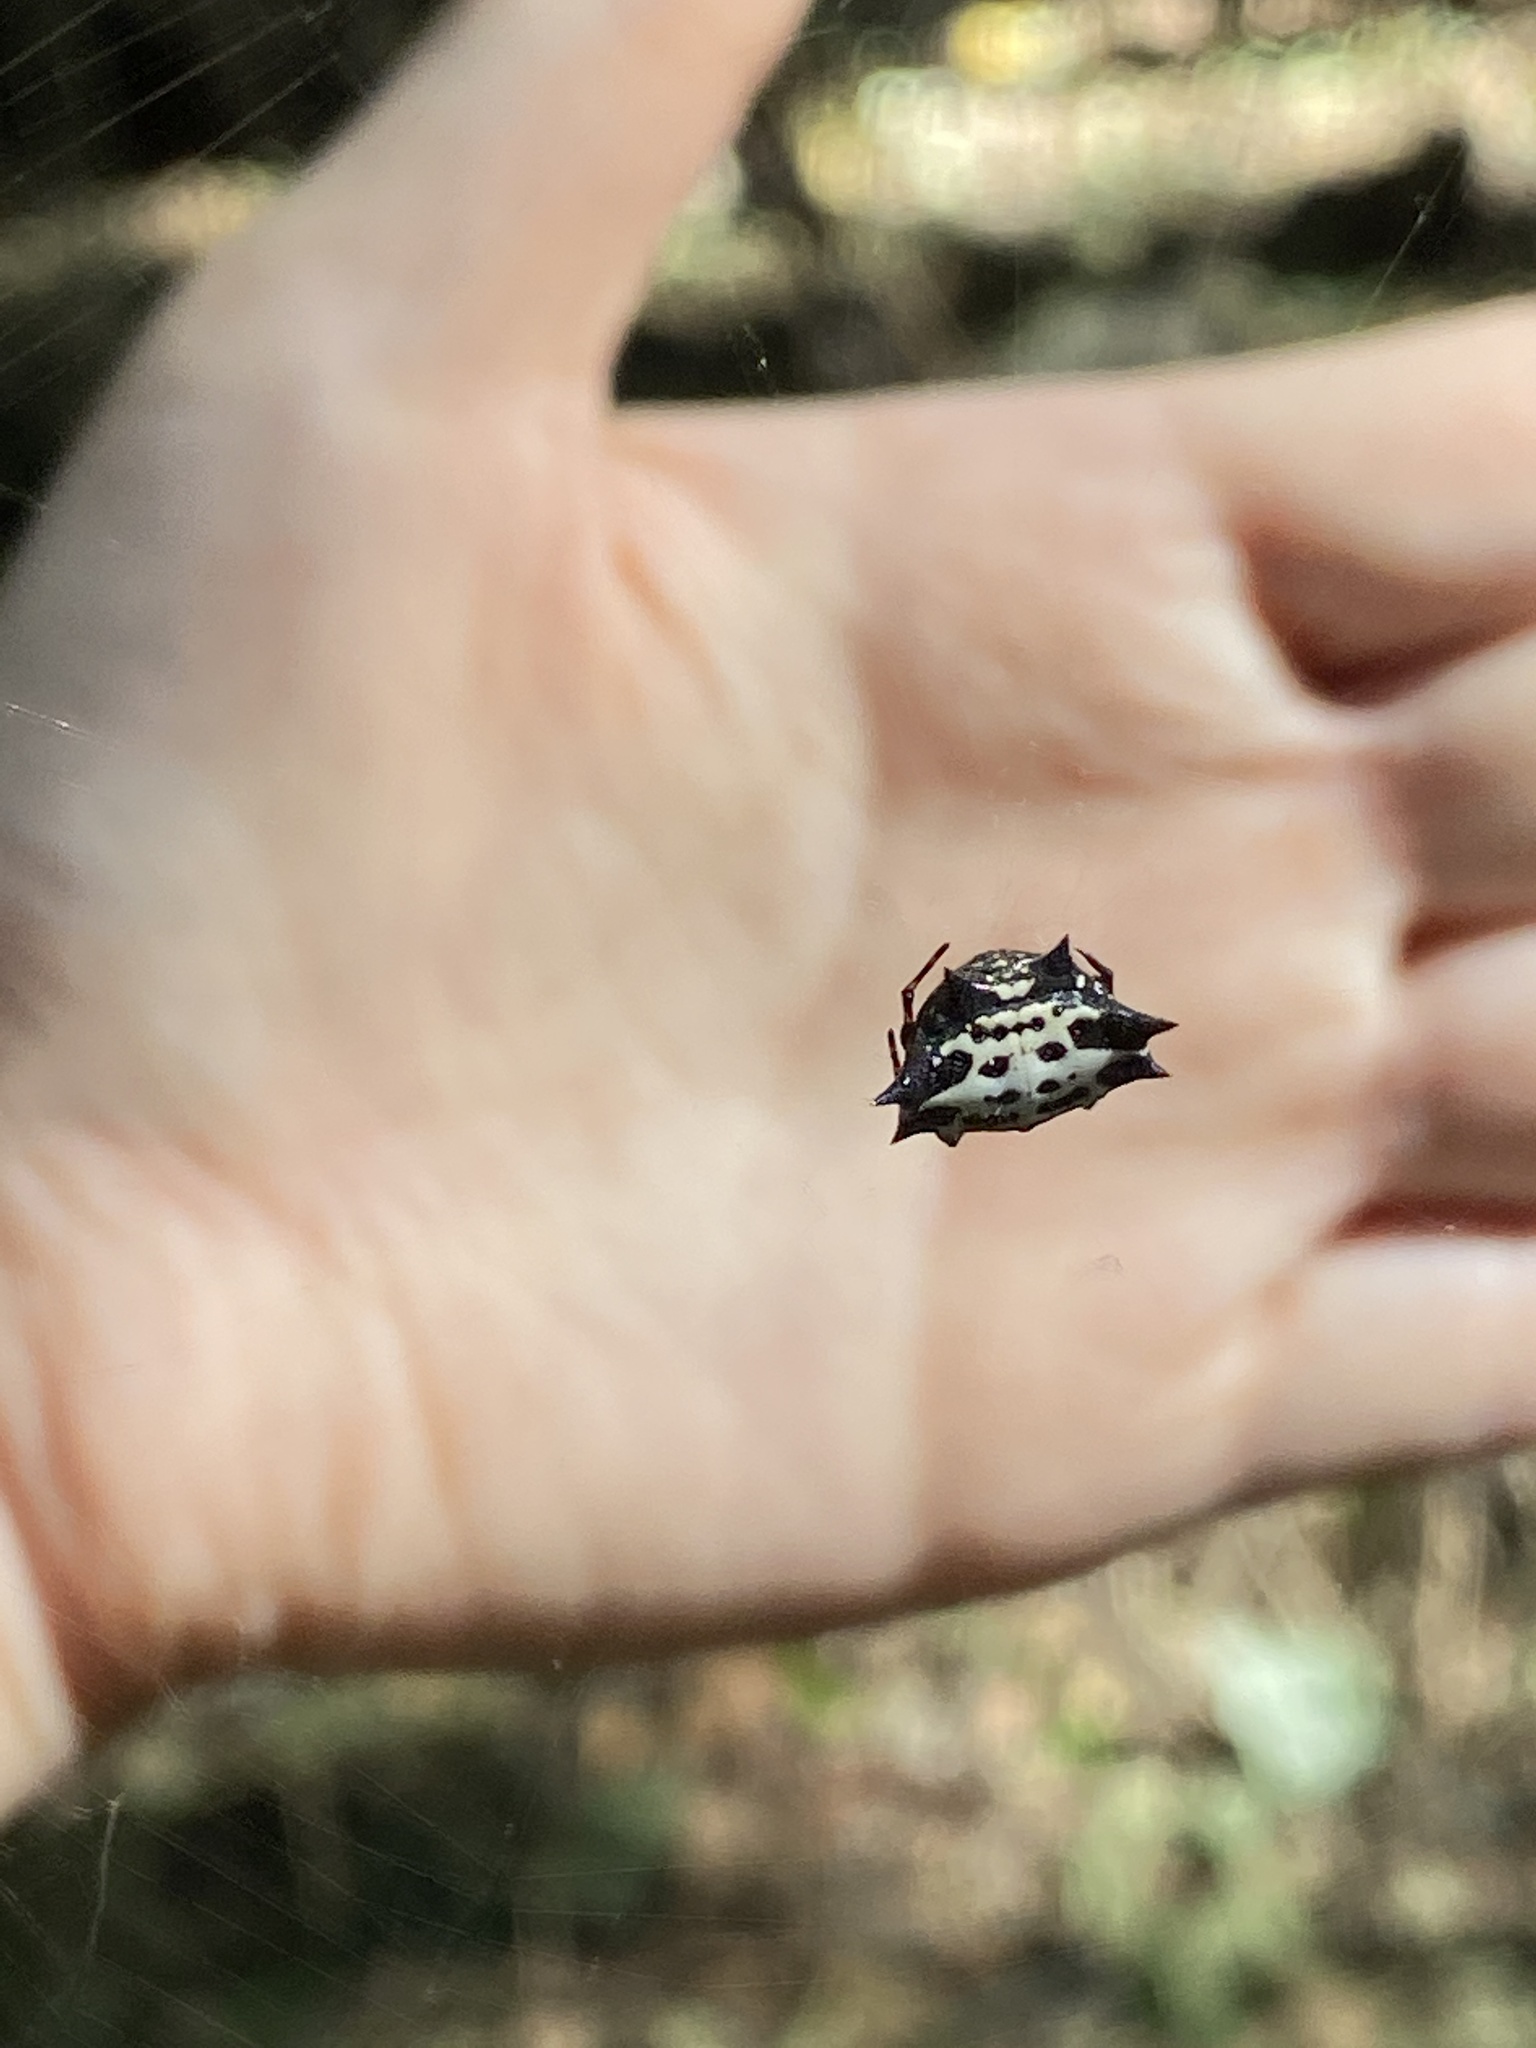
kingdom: Animalia
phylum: Arthropoda
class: Arachnida
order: Araneae
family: Araneidae
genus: Gasteracantha
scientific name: Gasteracantha cancriformis
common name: Orb weavers
